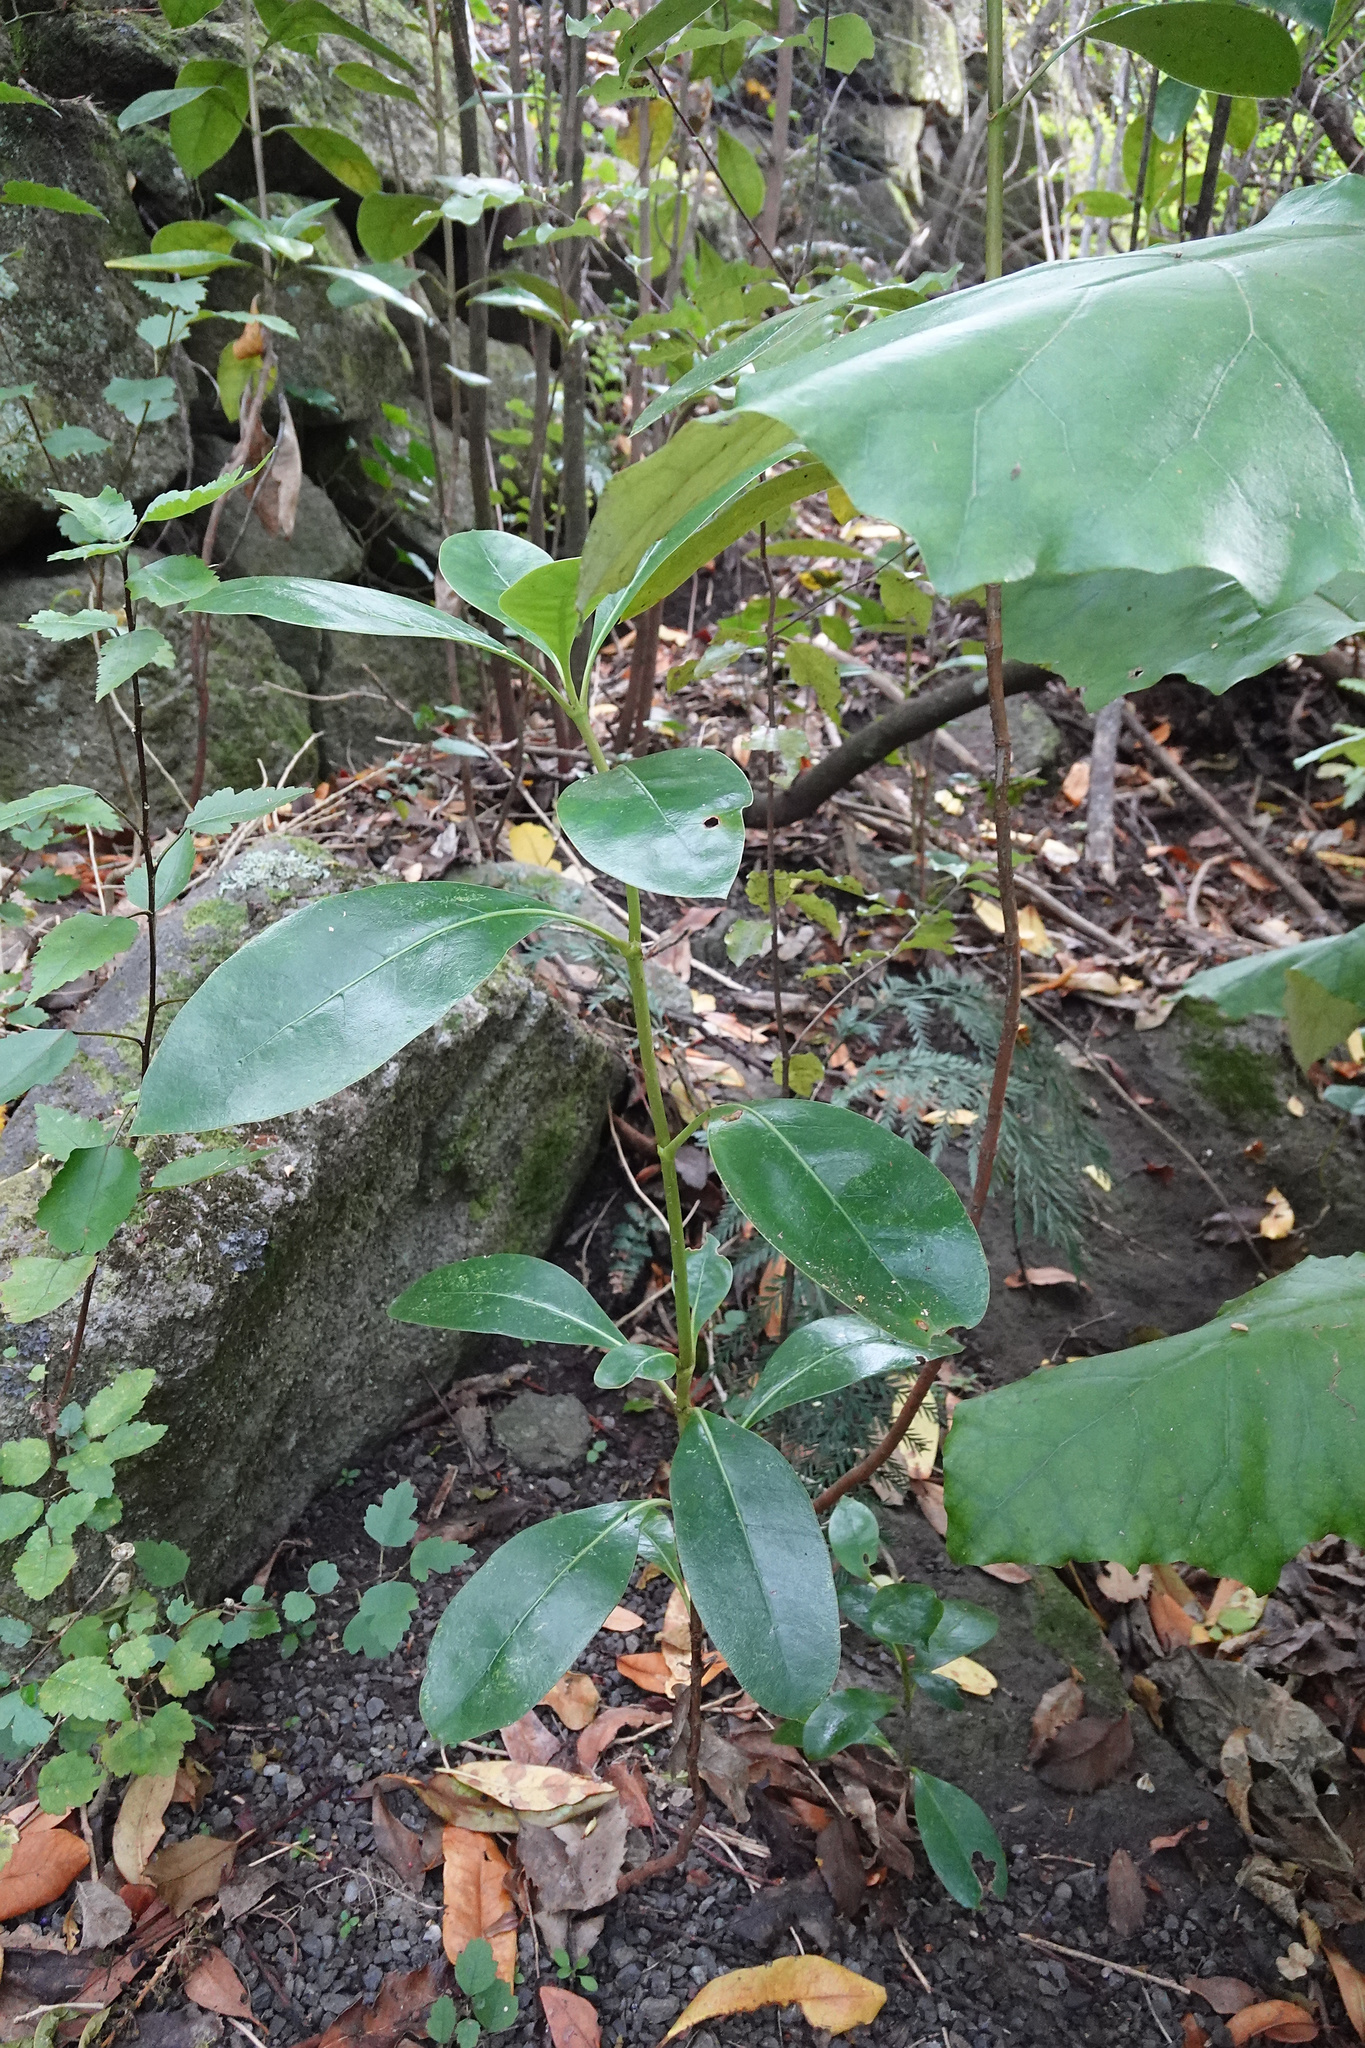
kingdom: Plantae
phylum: Tracheophyta
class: Magnoliopsida
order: Gentianales
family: Rubiaceae
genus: Coprosma
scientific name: Coprosma lucida
